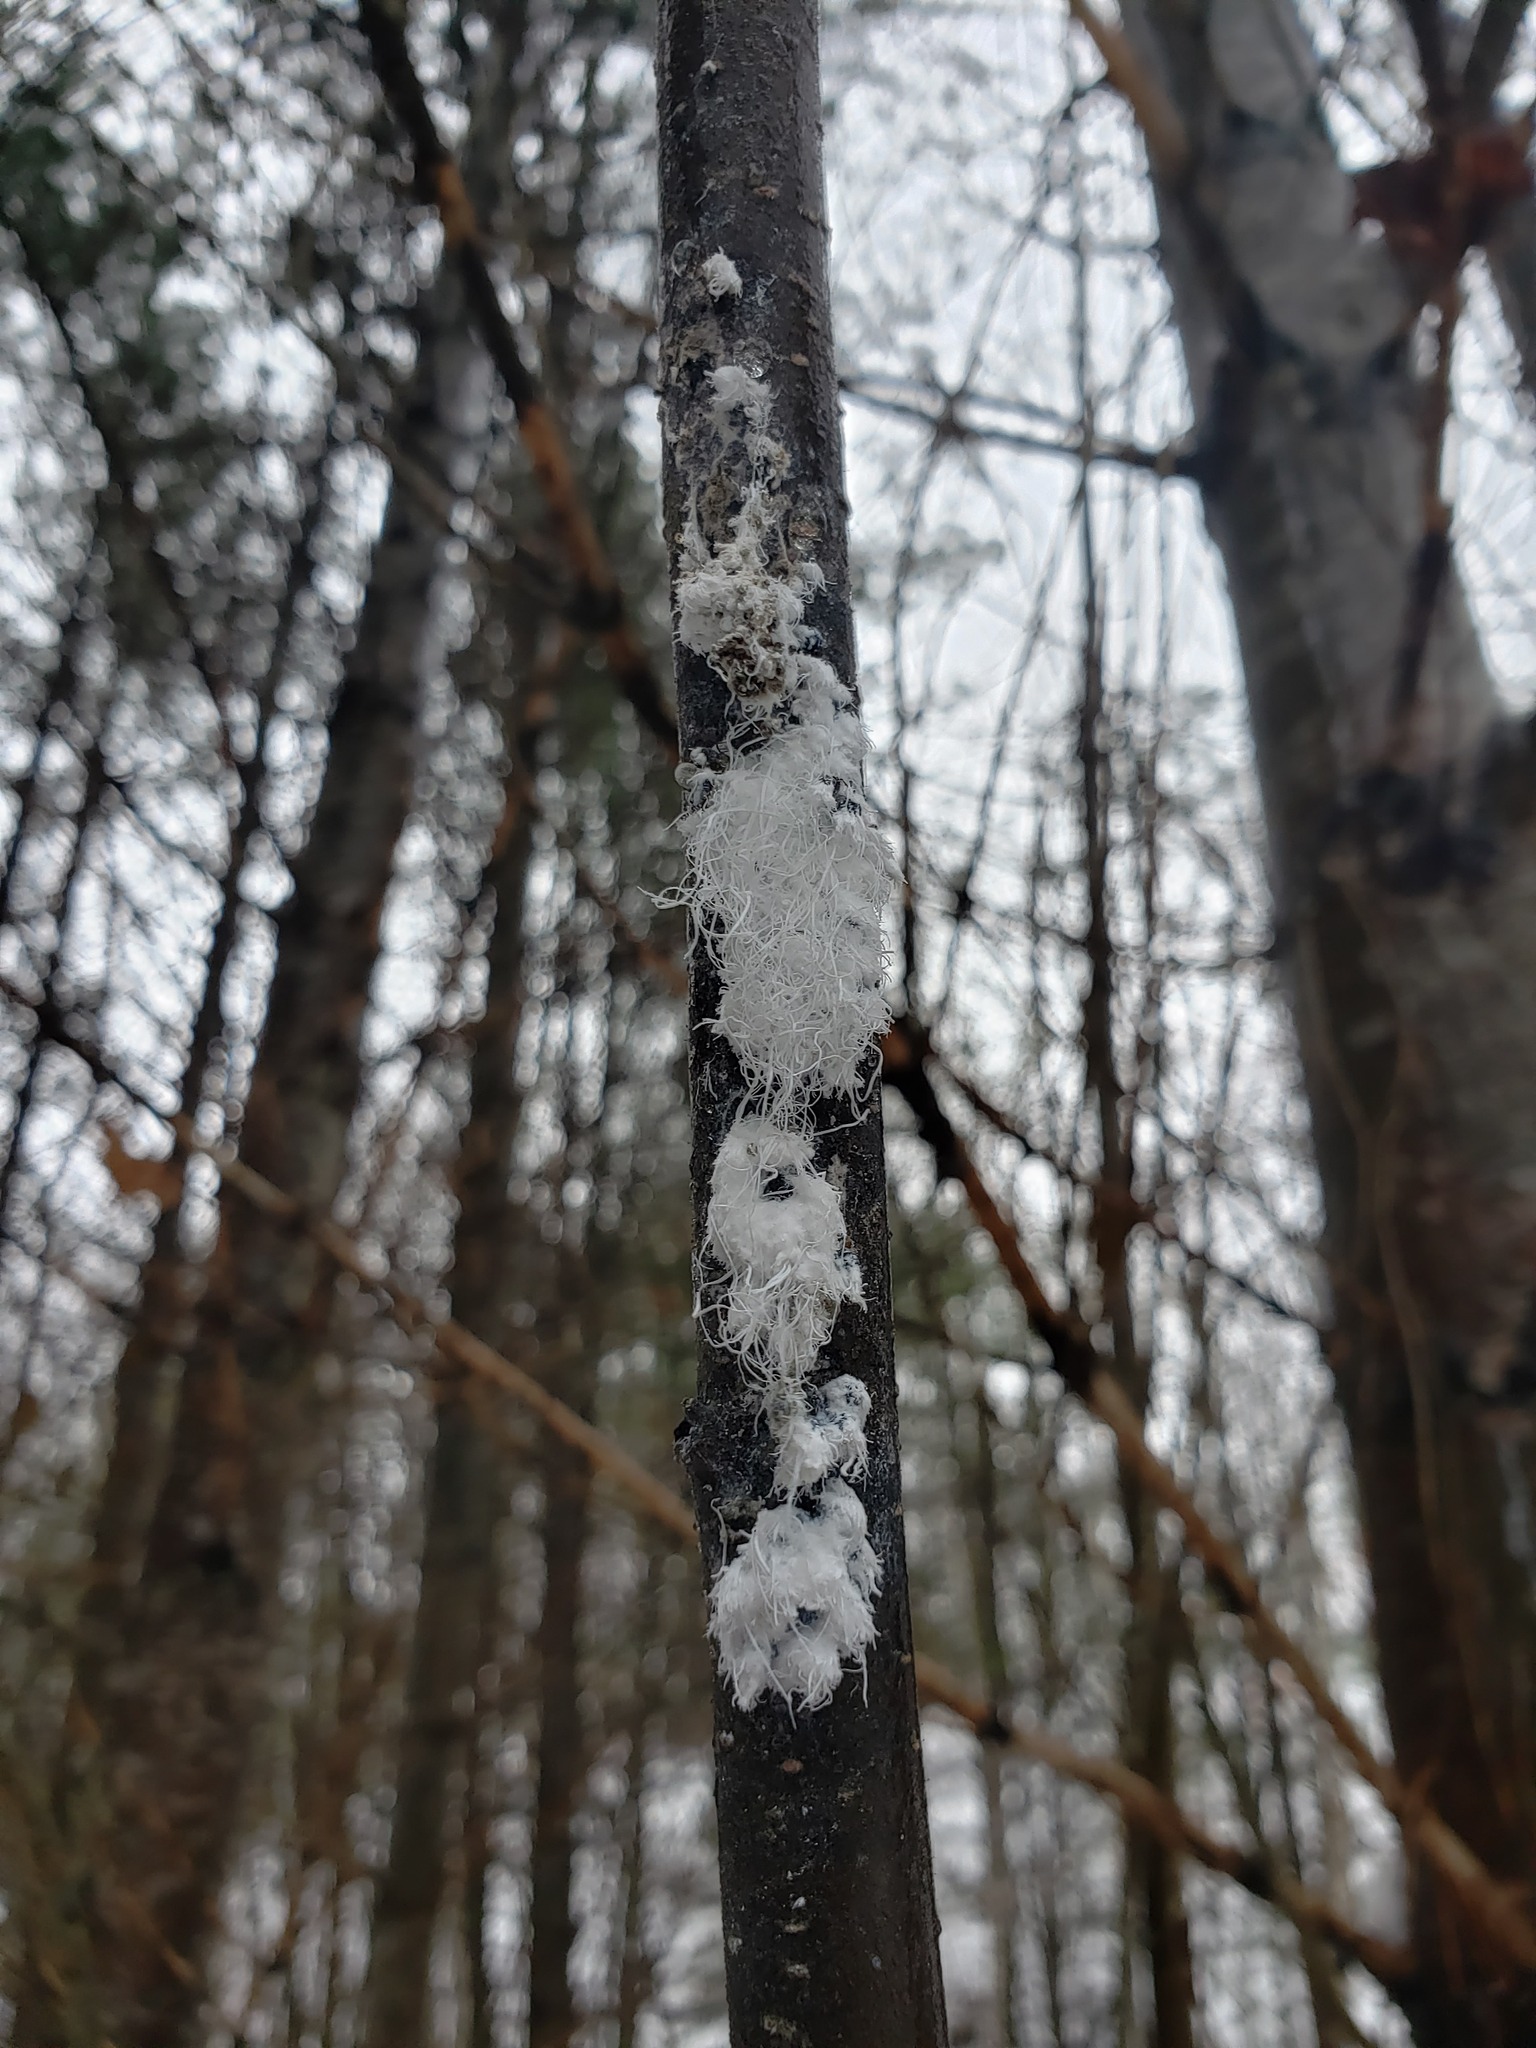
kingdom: Animalia
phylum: Arthropoda
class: Insecta
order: Hemiptera
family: Aphididae
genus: Prociphilus
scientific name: Prociphilus tessellatus
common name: Woolly alder aphid
